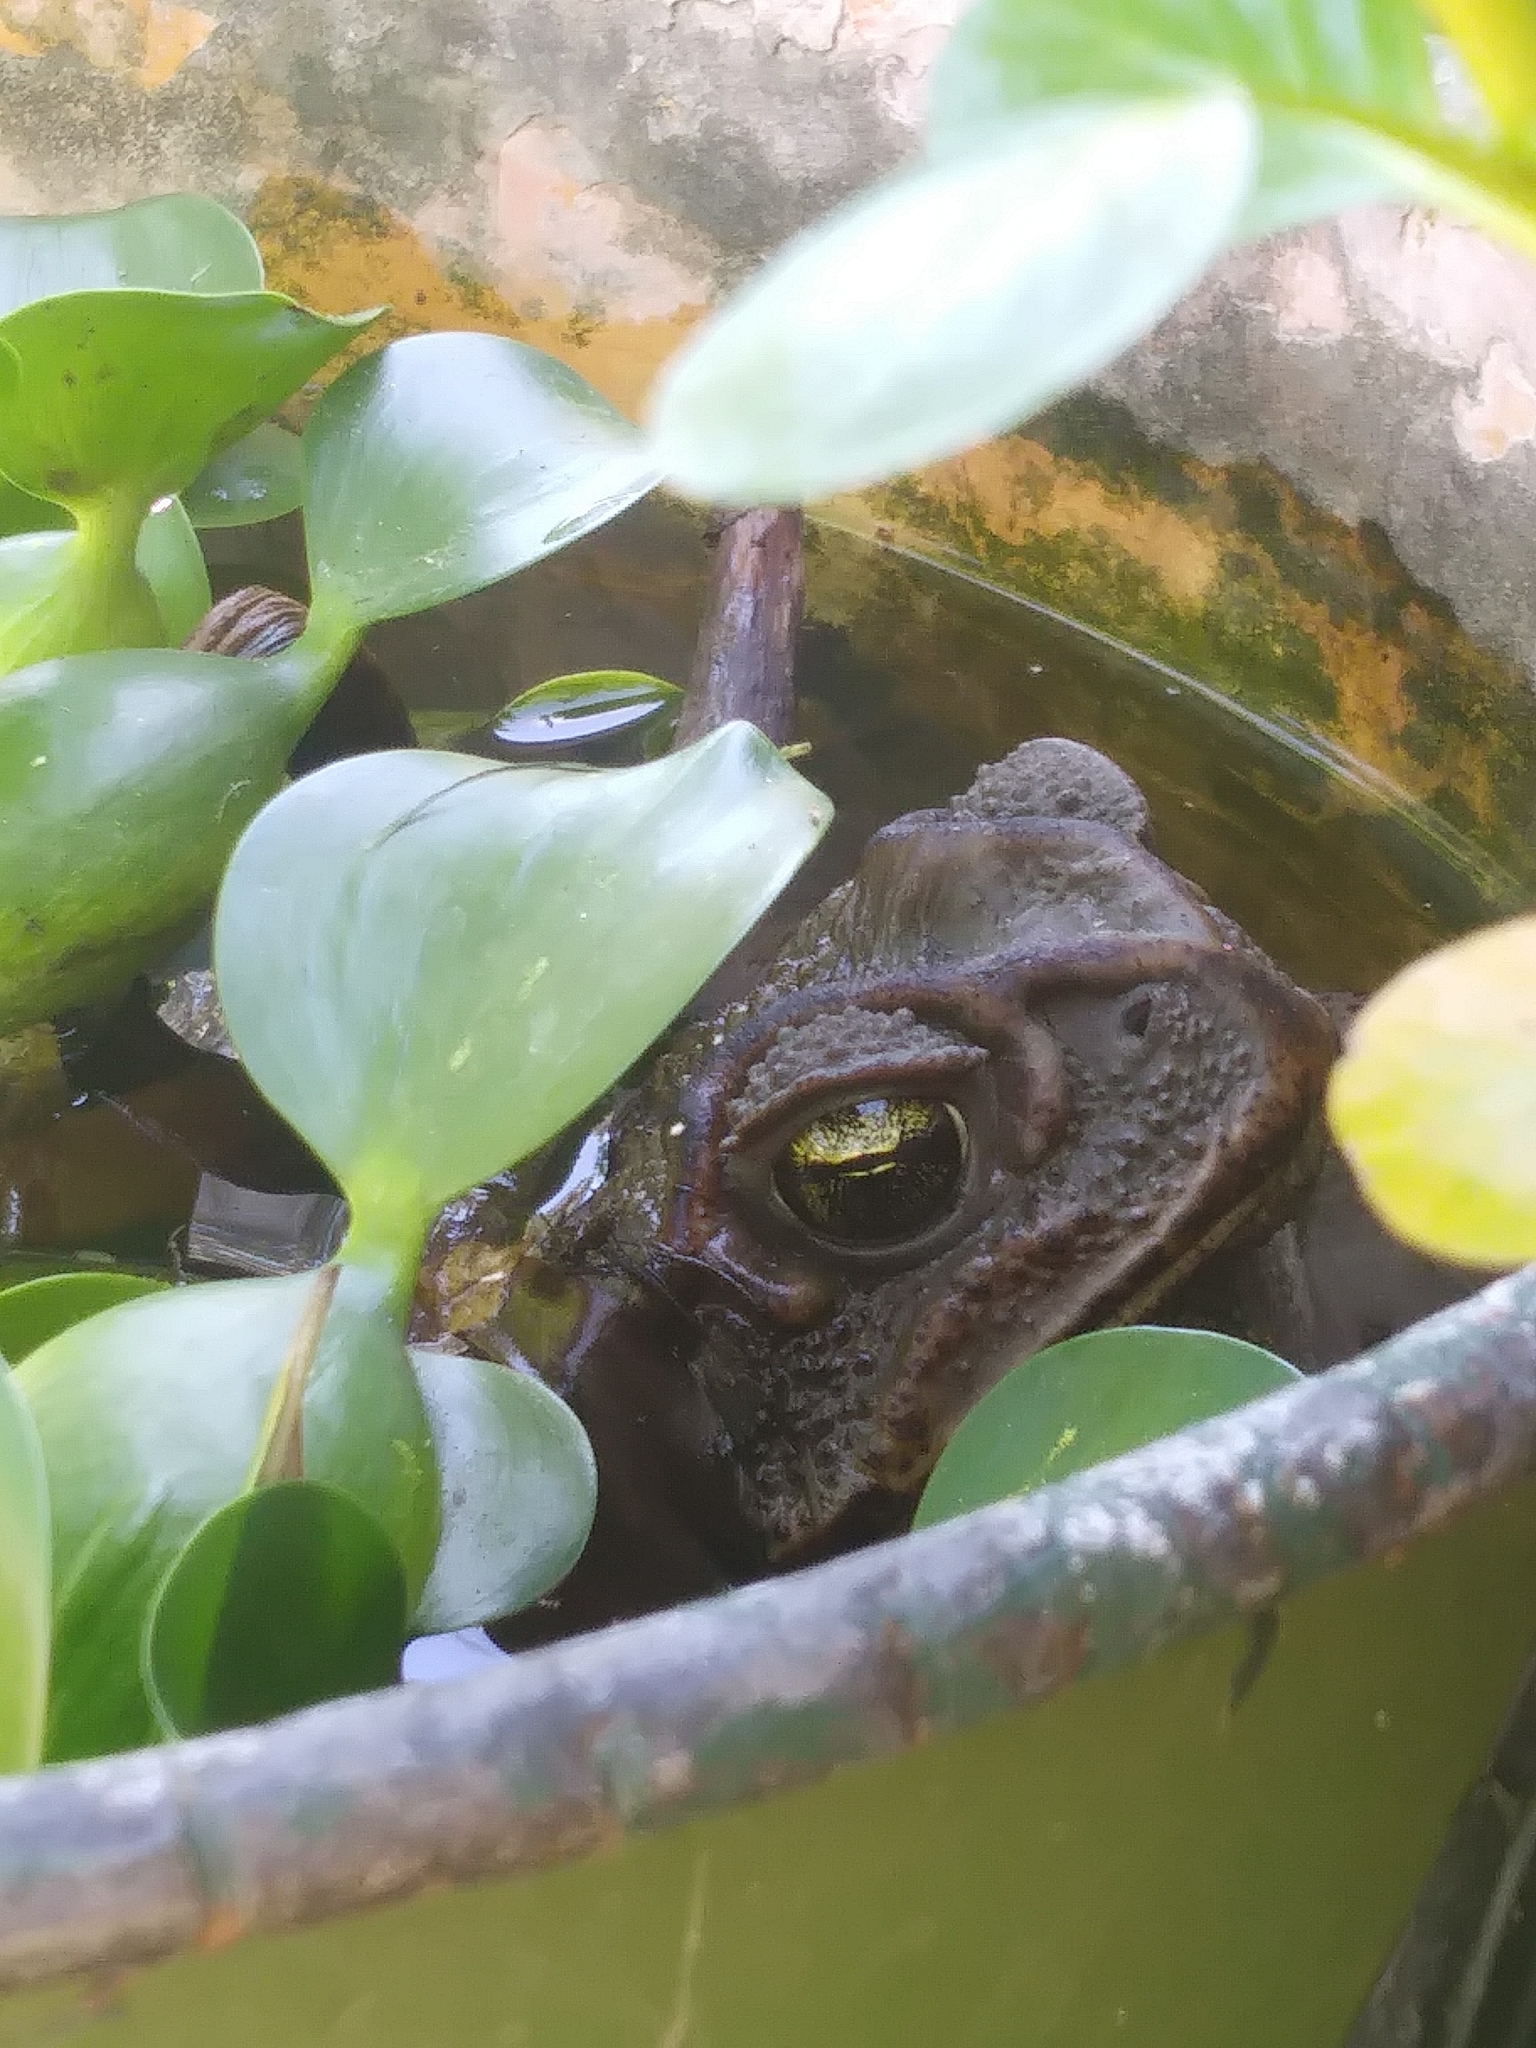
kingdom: Animalia
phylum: Chordata
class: Amphibia
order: Anura
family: Bufonidae
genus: Rhinella
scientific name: Rhinella arenarum
